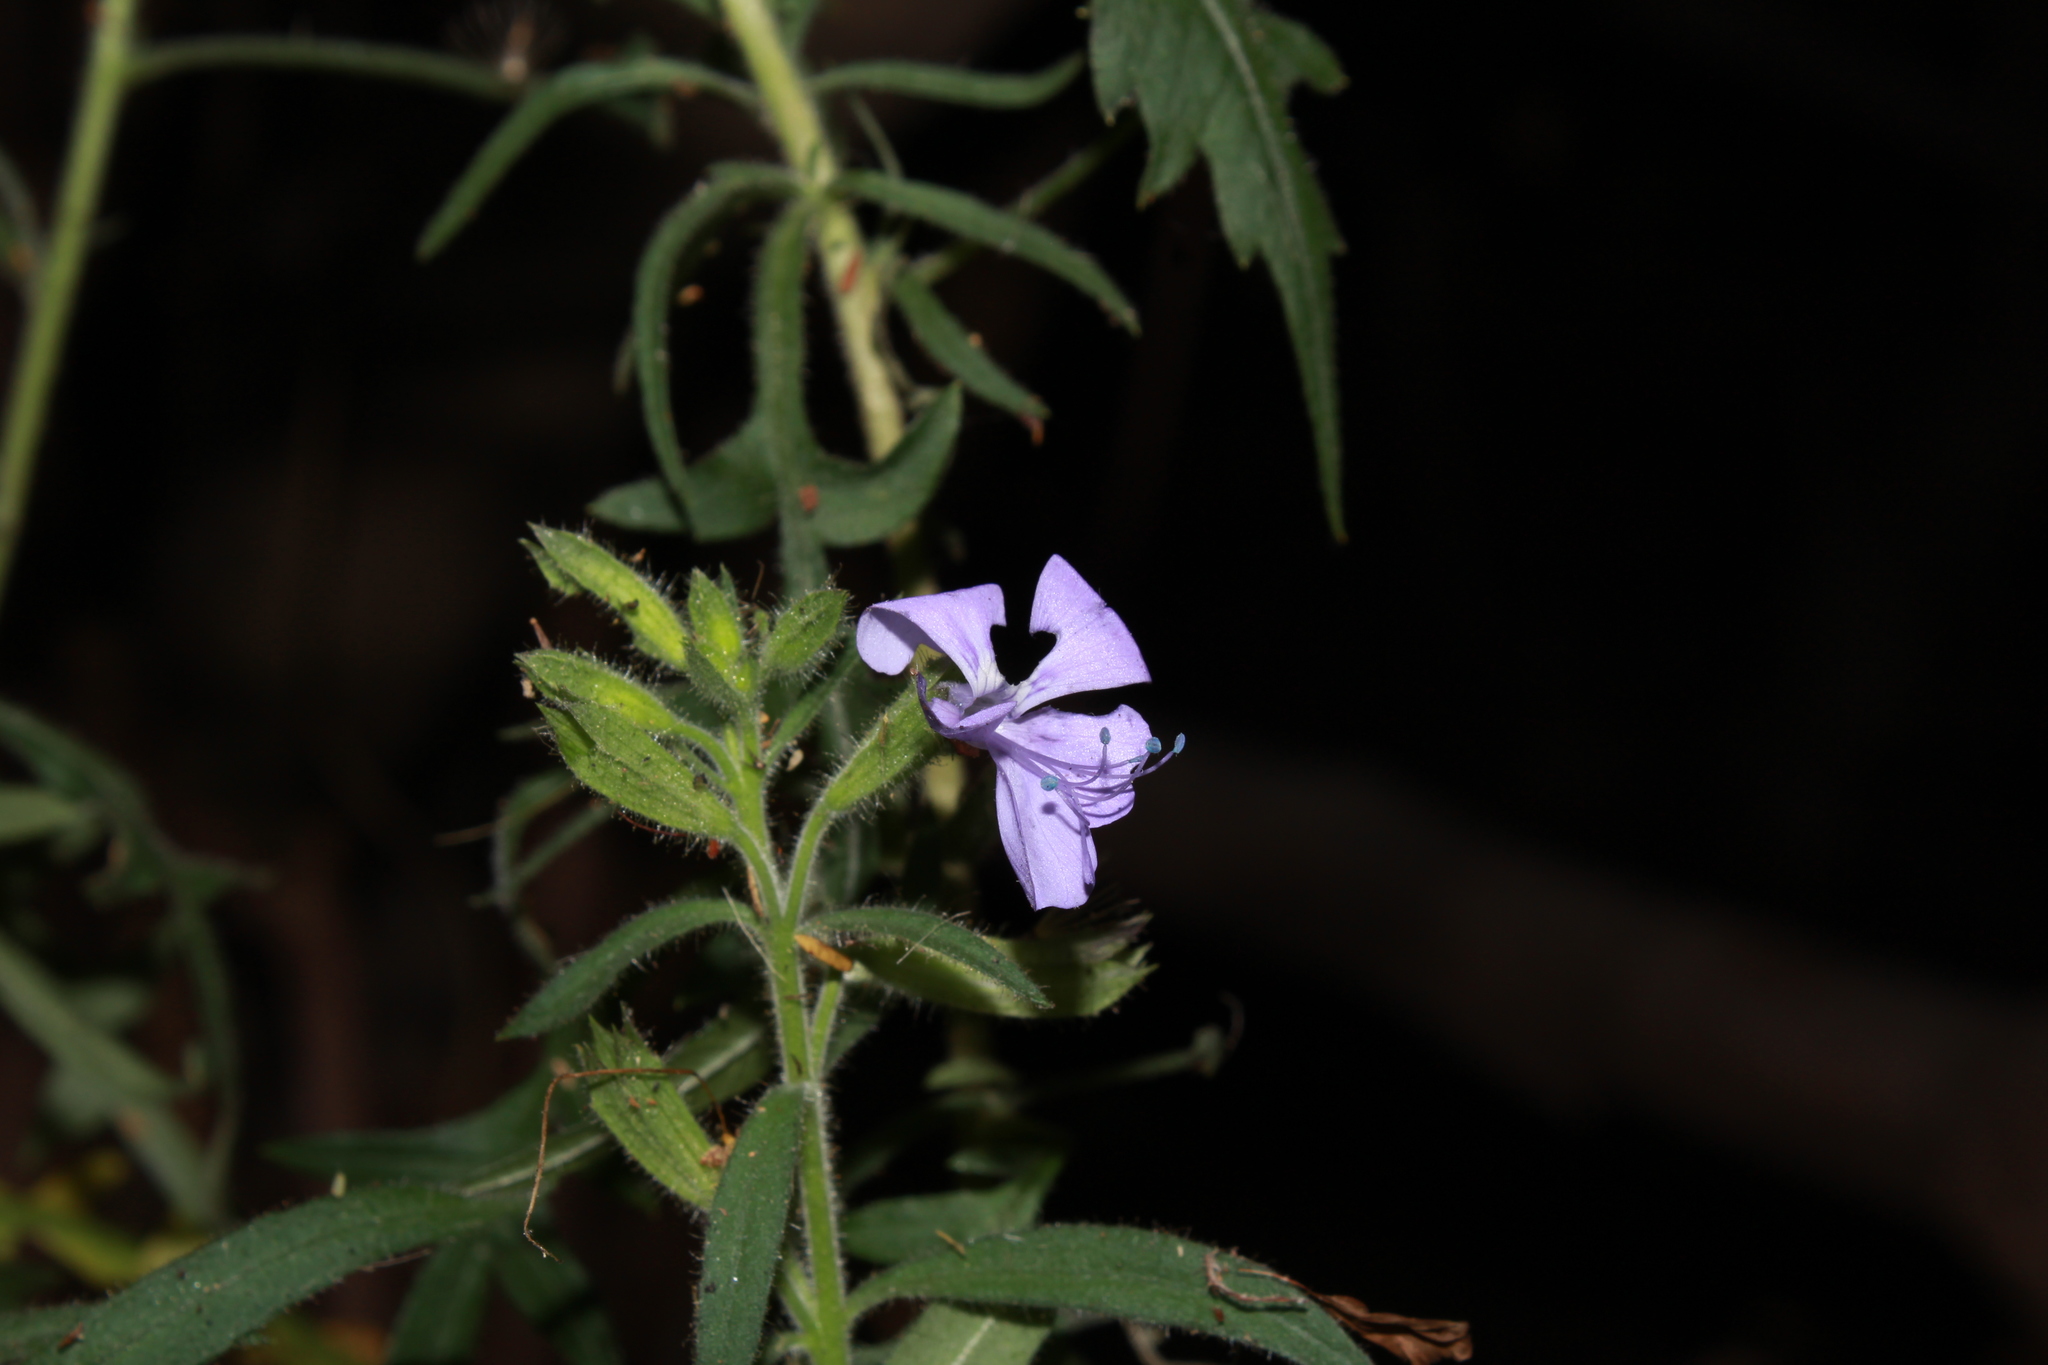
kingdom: Plantae
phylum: Tracheophyta
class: Magnoliopsida
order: Ericales
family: Polemoniaceae
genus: Bonplandia
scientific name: Bonplandia geminiflora
